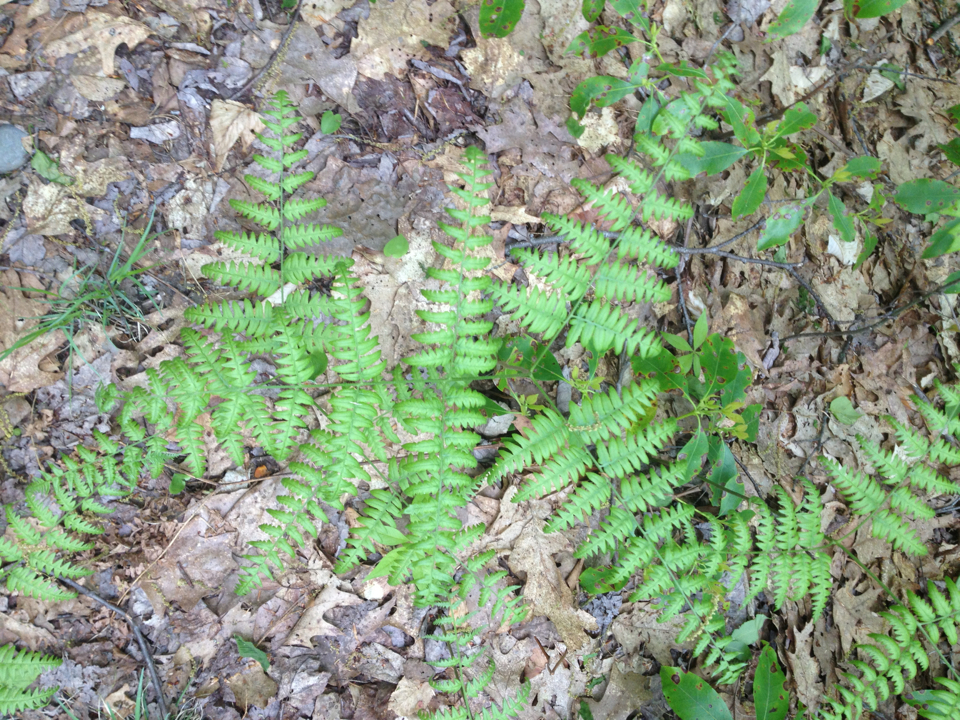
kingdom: Plantae
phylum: Tracheophyta
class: Polypodiopsida
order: Polypodiales
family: Dennstaedtiaceae
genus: Pteridium
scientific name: Pteridium aquilinum
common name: Bracken
